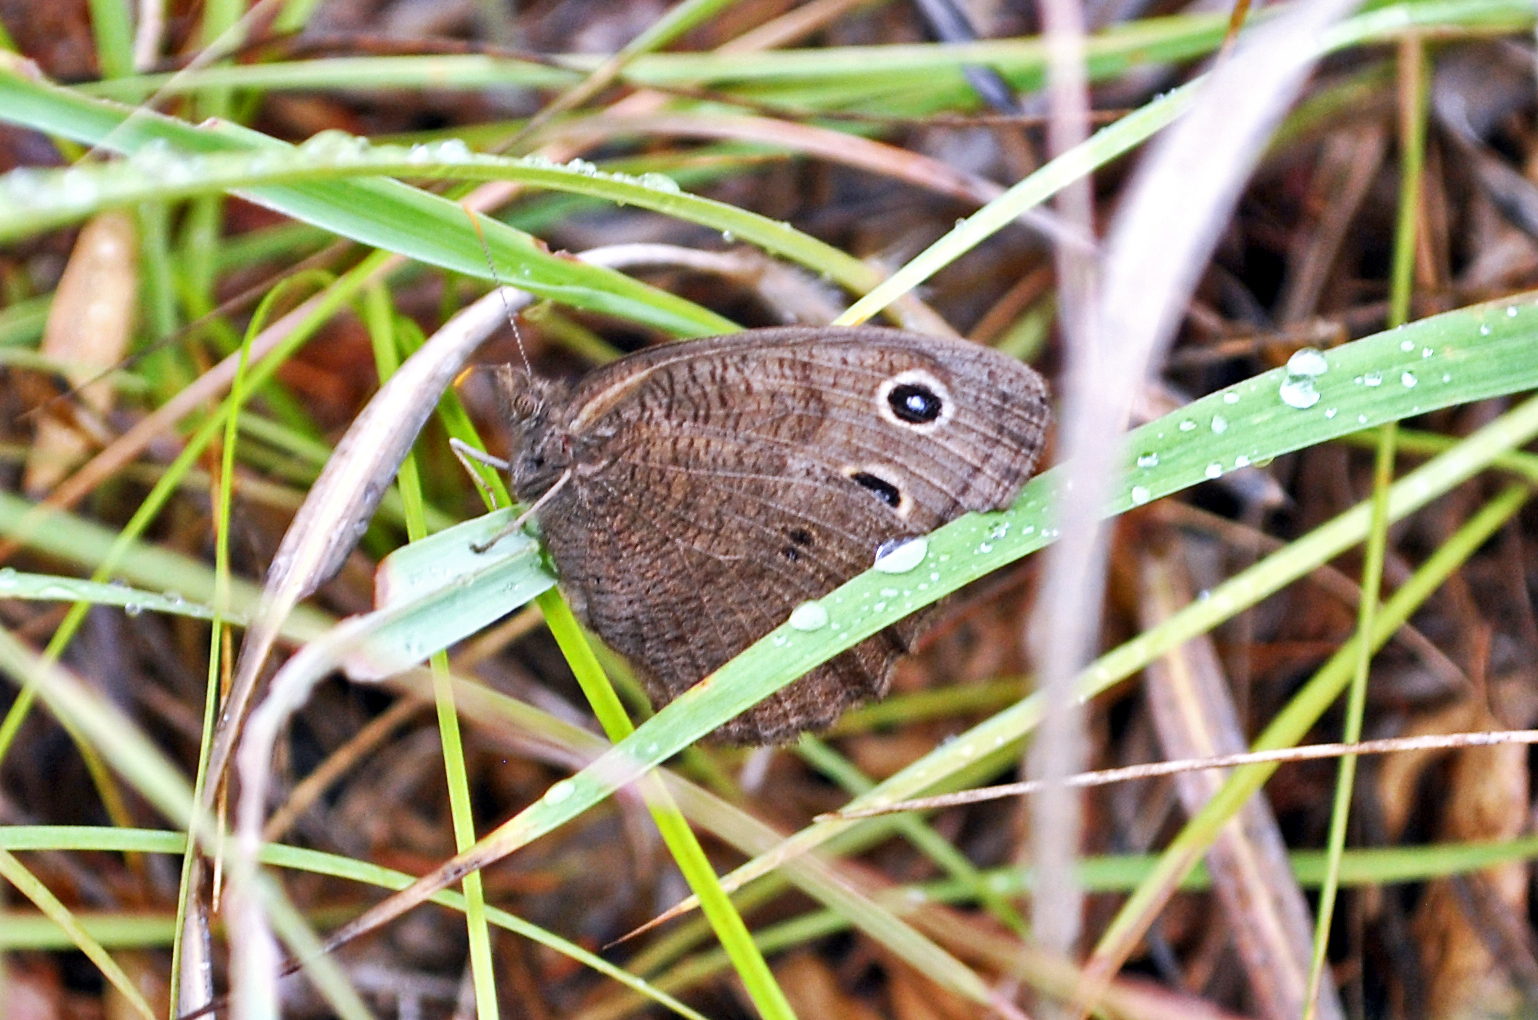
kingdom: Animalia
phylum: Arthropoda
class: Insecta
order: Lepidoptera
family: Nymphalidae
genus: Cercyonis
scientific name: Cercyonis pegala
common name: Common wood-nymph
